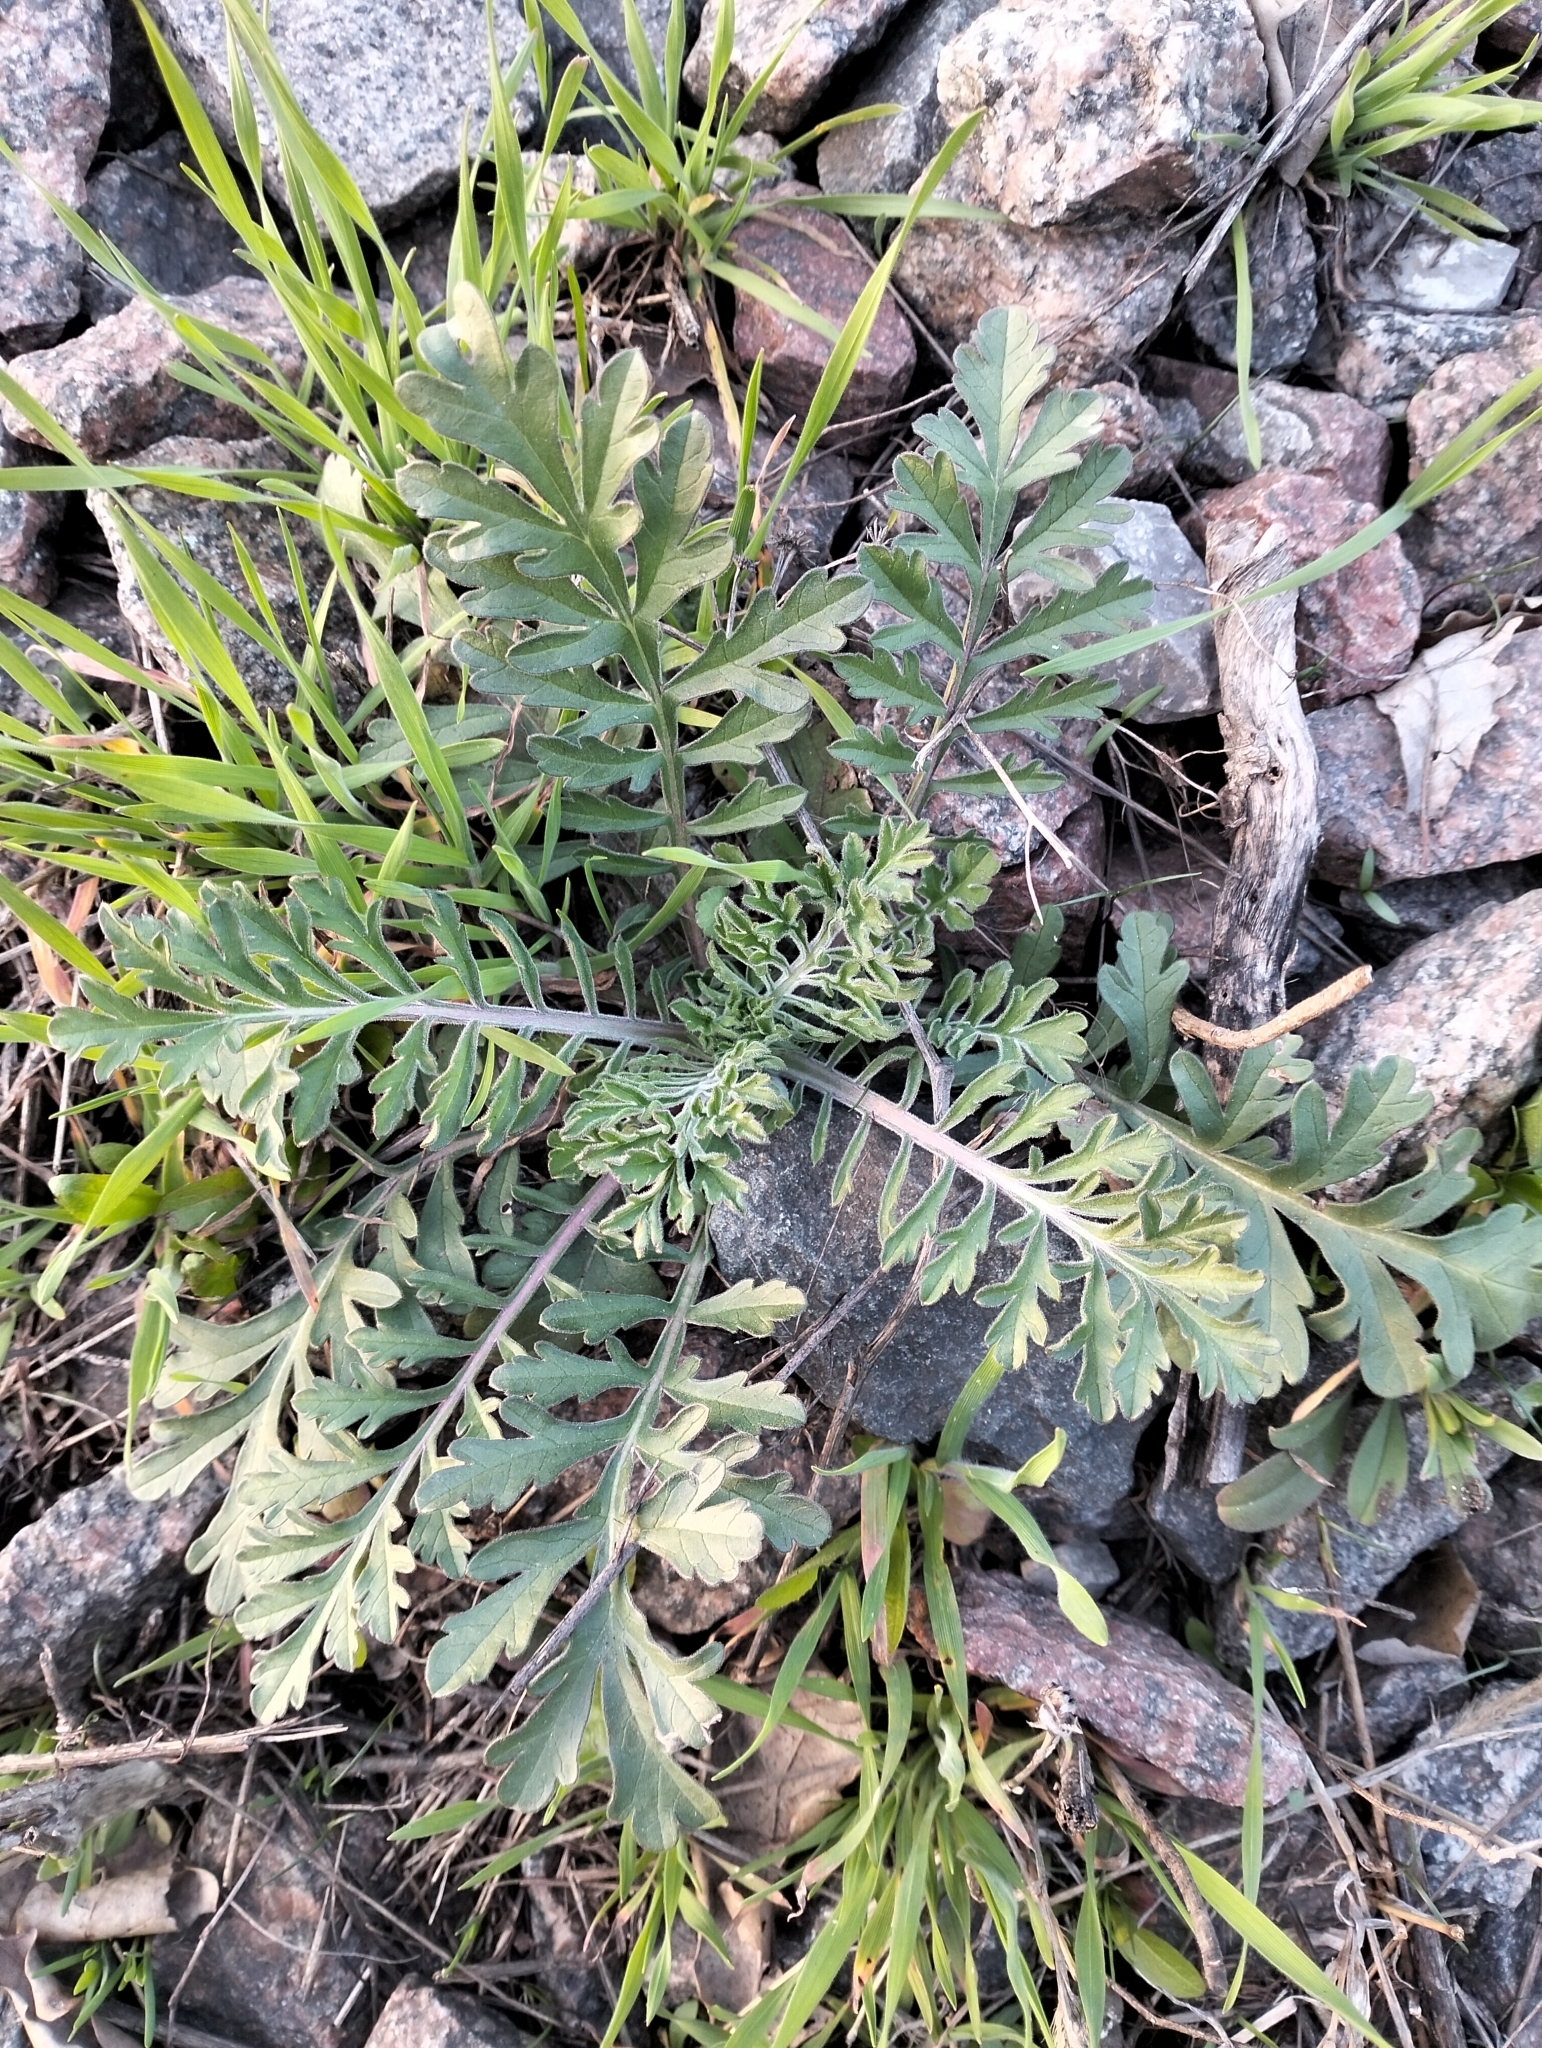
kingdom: Plantae
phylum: Tracheophyta
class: Magnoliopsida
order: Dipsacales
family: Caprifoliaceae
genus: Scabiosa
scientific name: Scabiosa ochroleuca
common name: Cream pincushions
